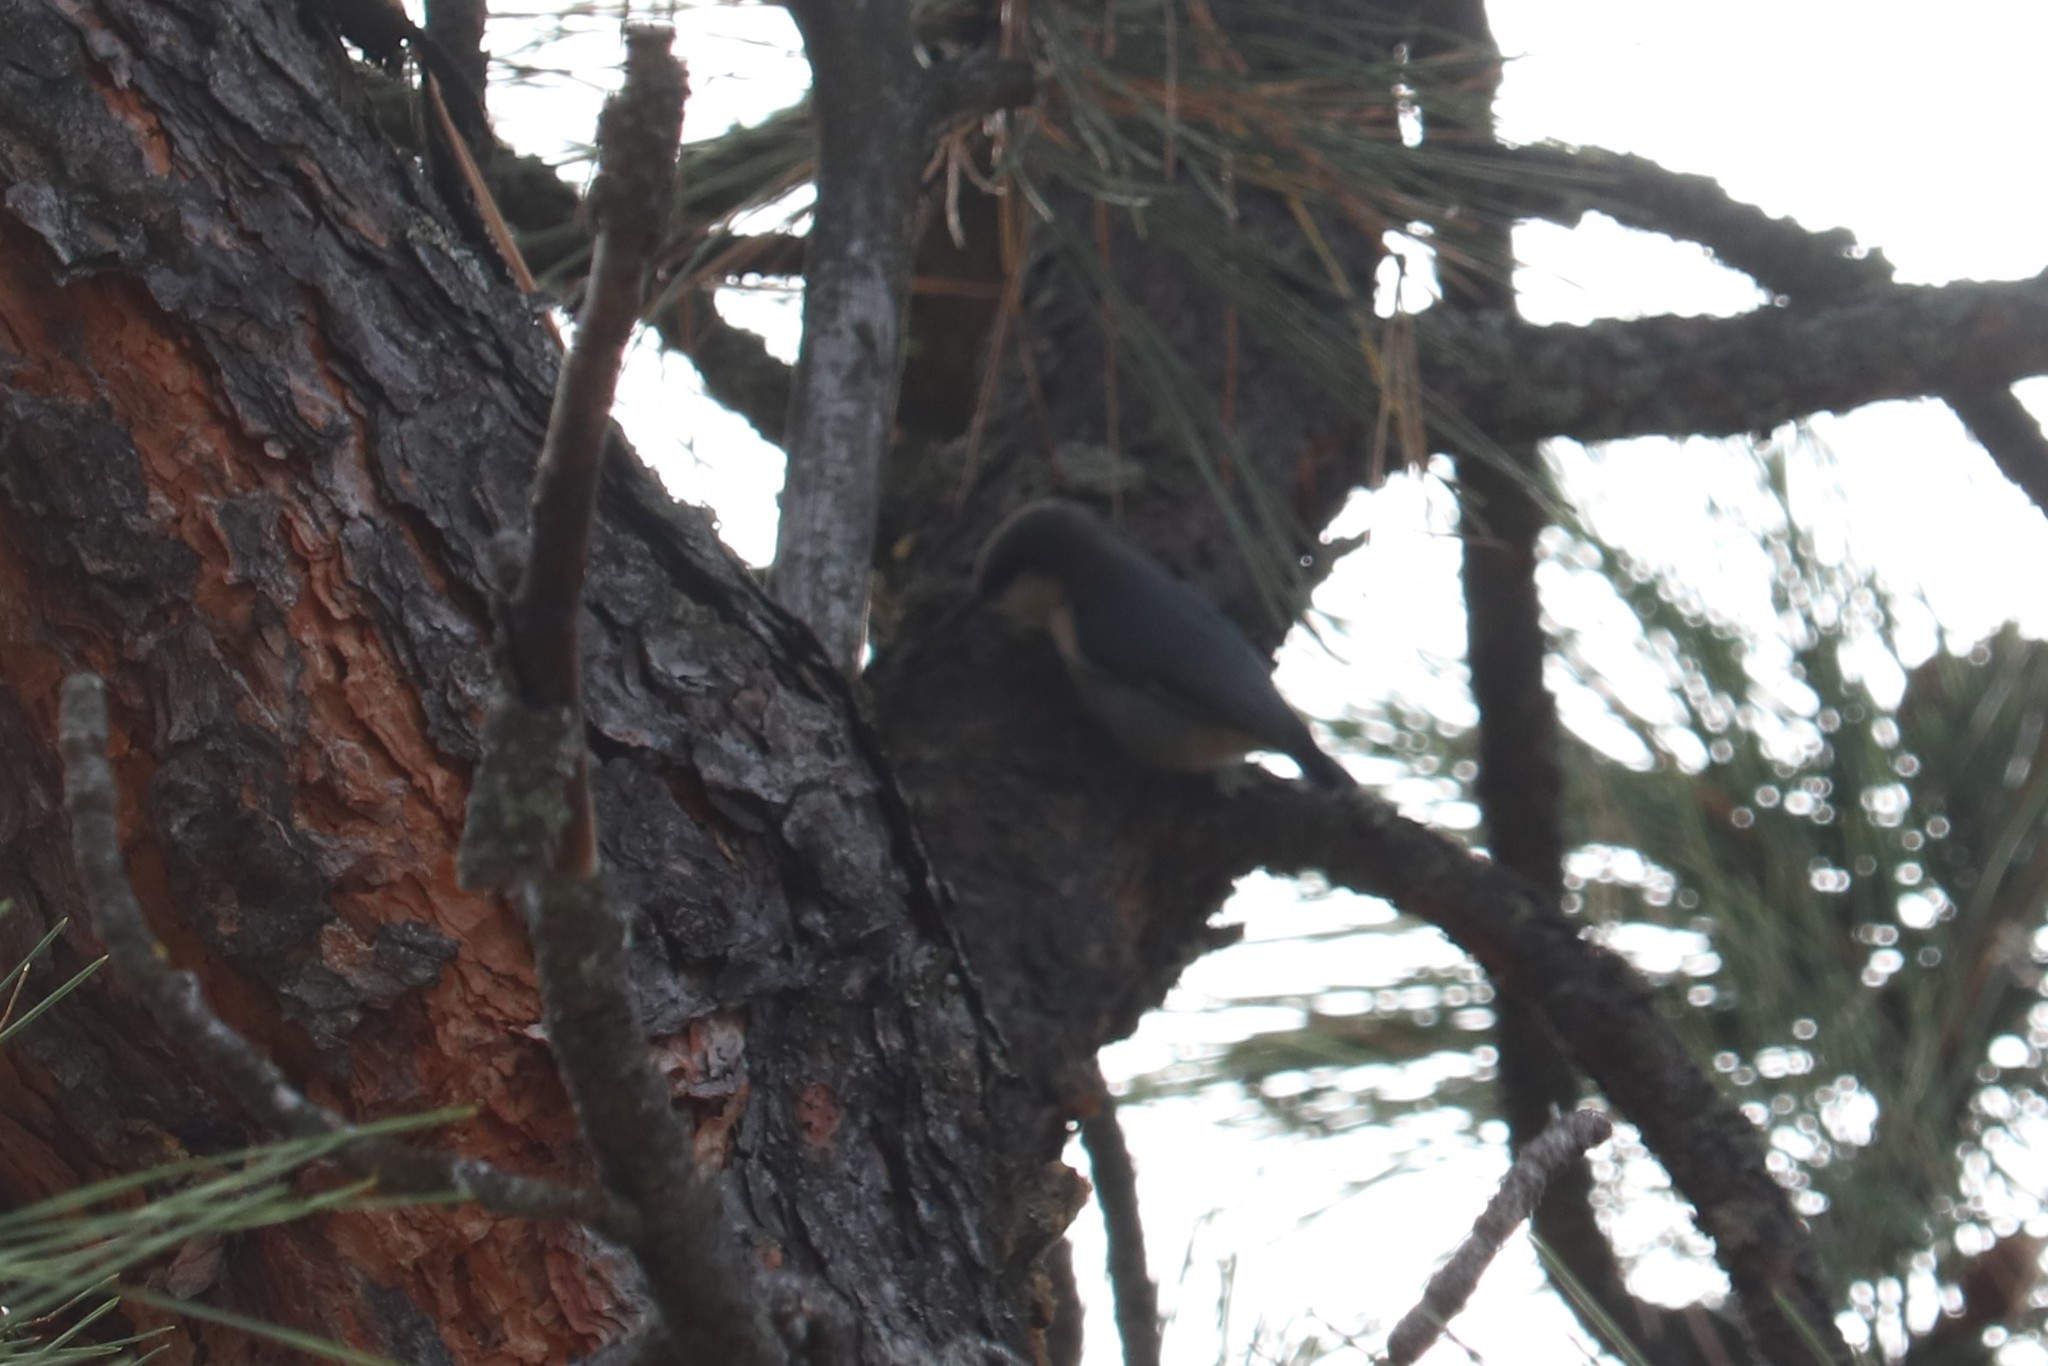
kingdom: Animalia
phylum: Chordata
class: Aves
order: Passeriformes
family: Sittidae
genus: Sitta
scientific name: Sitta pygmaea
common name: Pygmy nuthatch
